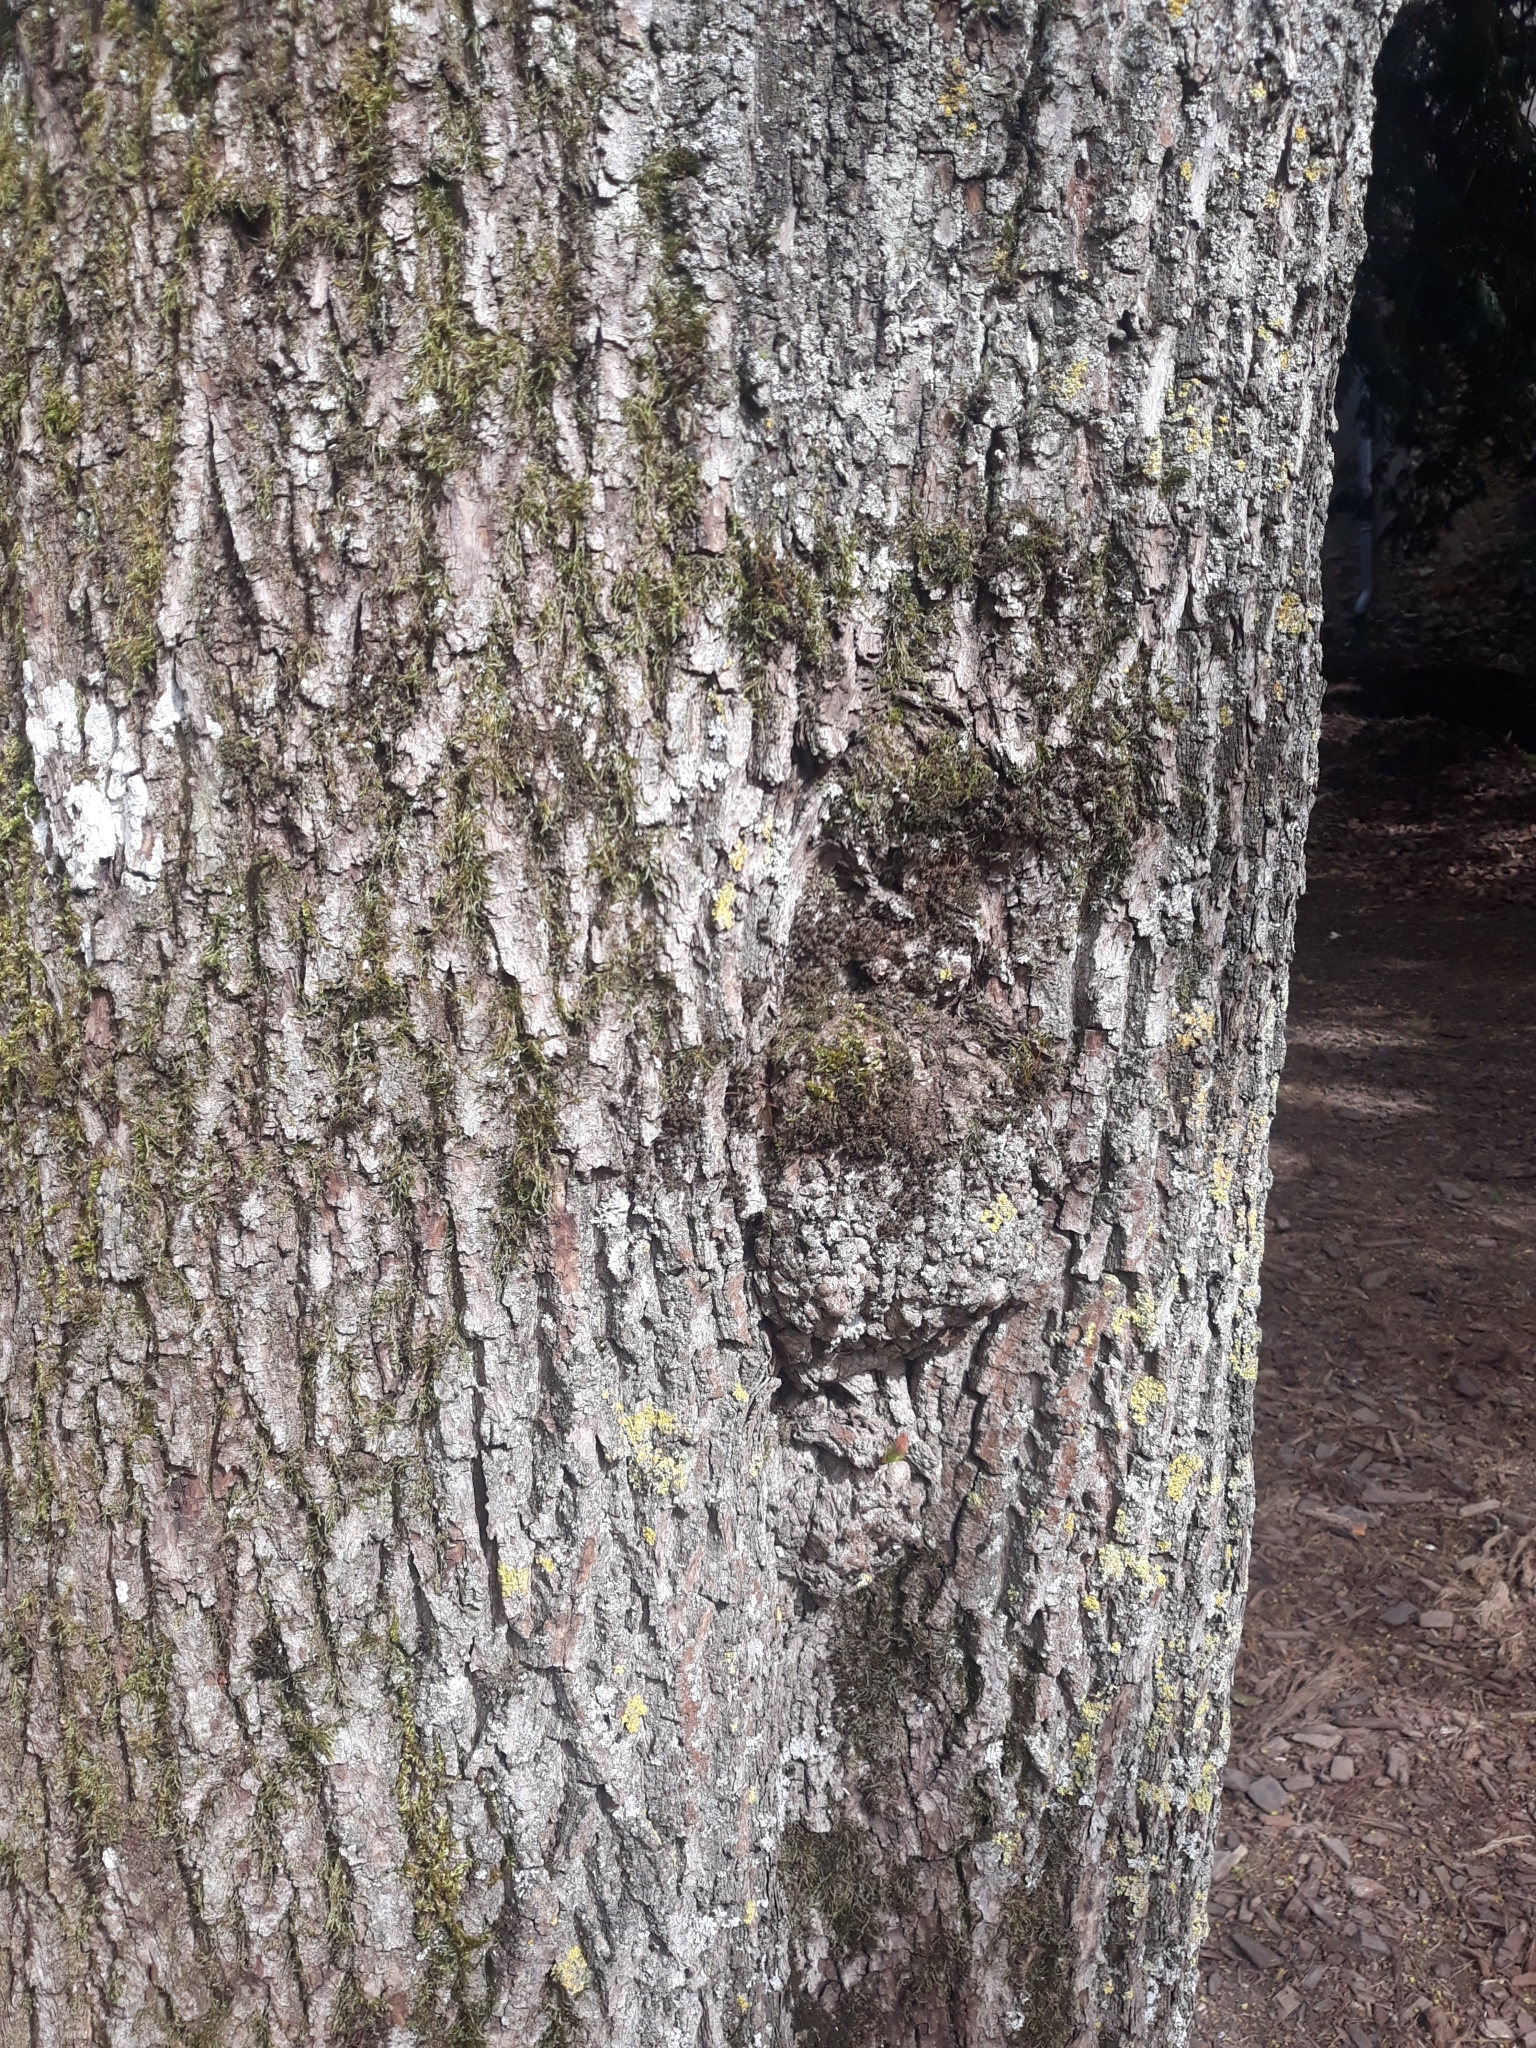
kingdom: Plantae
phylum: Tracheophyta
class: Magnoliopsida
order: Sapindales
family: Sapindaceae
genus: Acer
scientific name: Acer platanoides
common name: Norway maple
